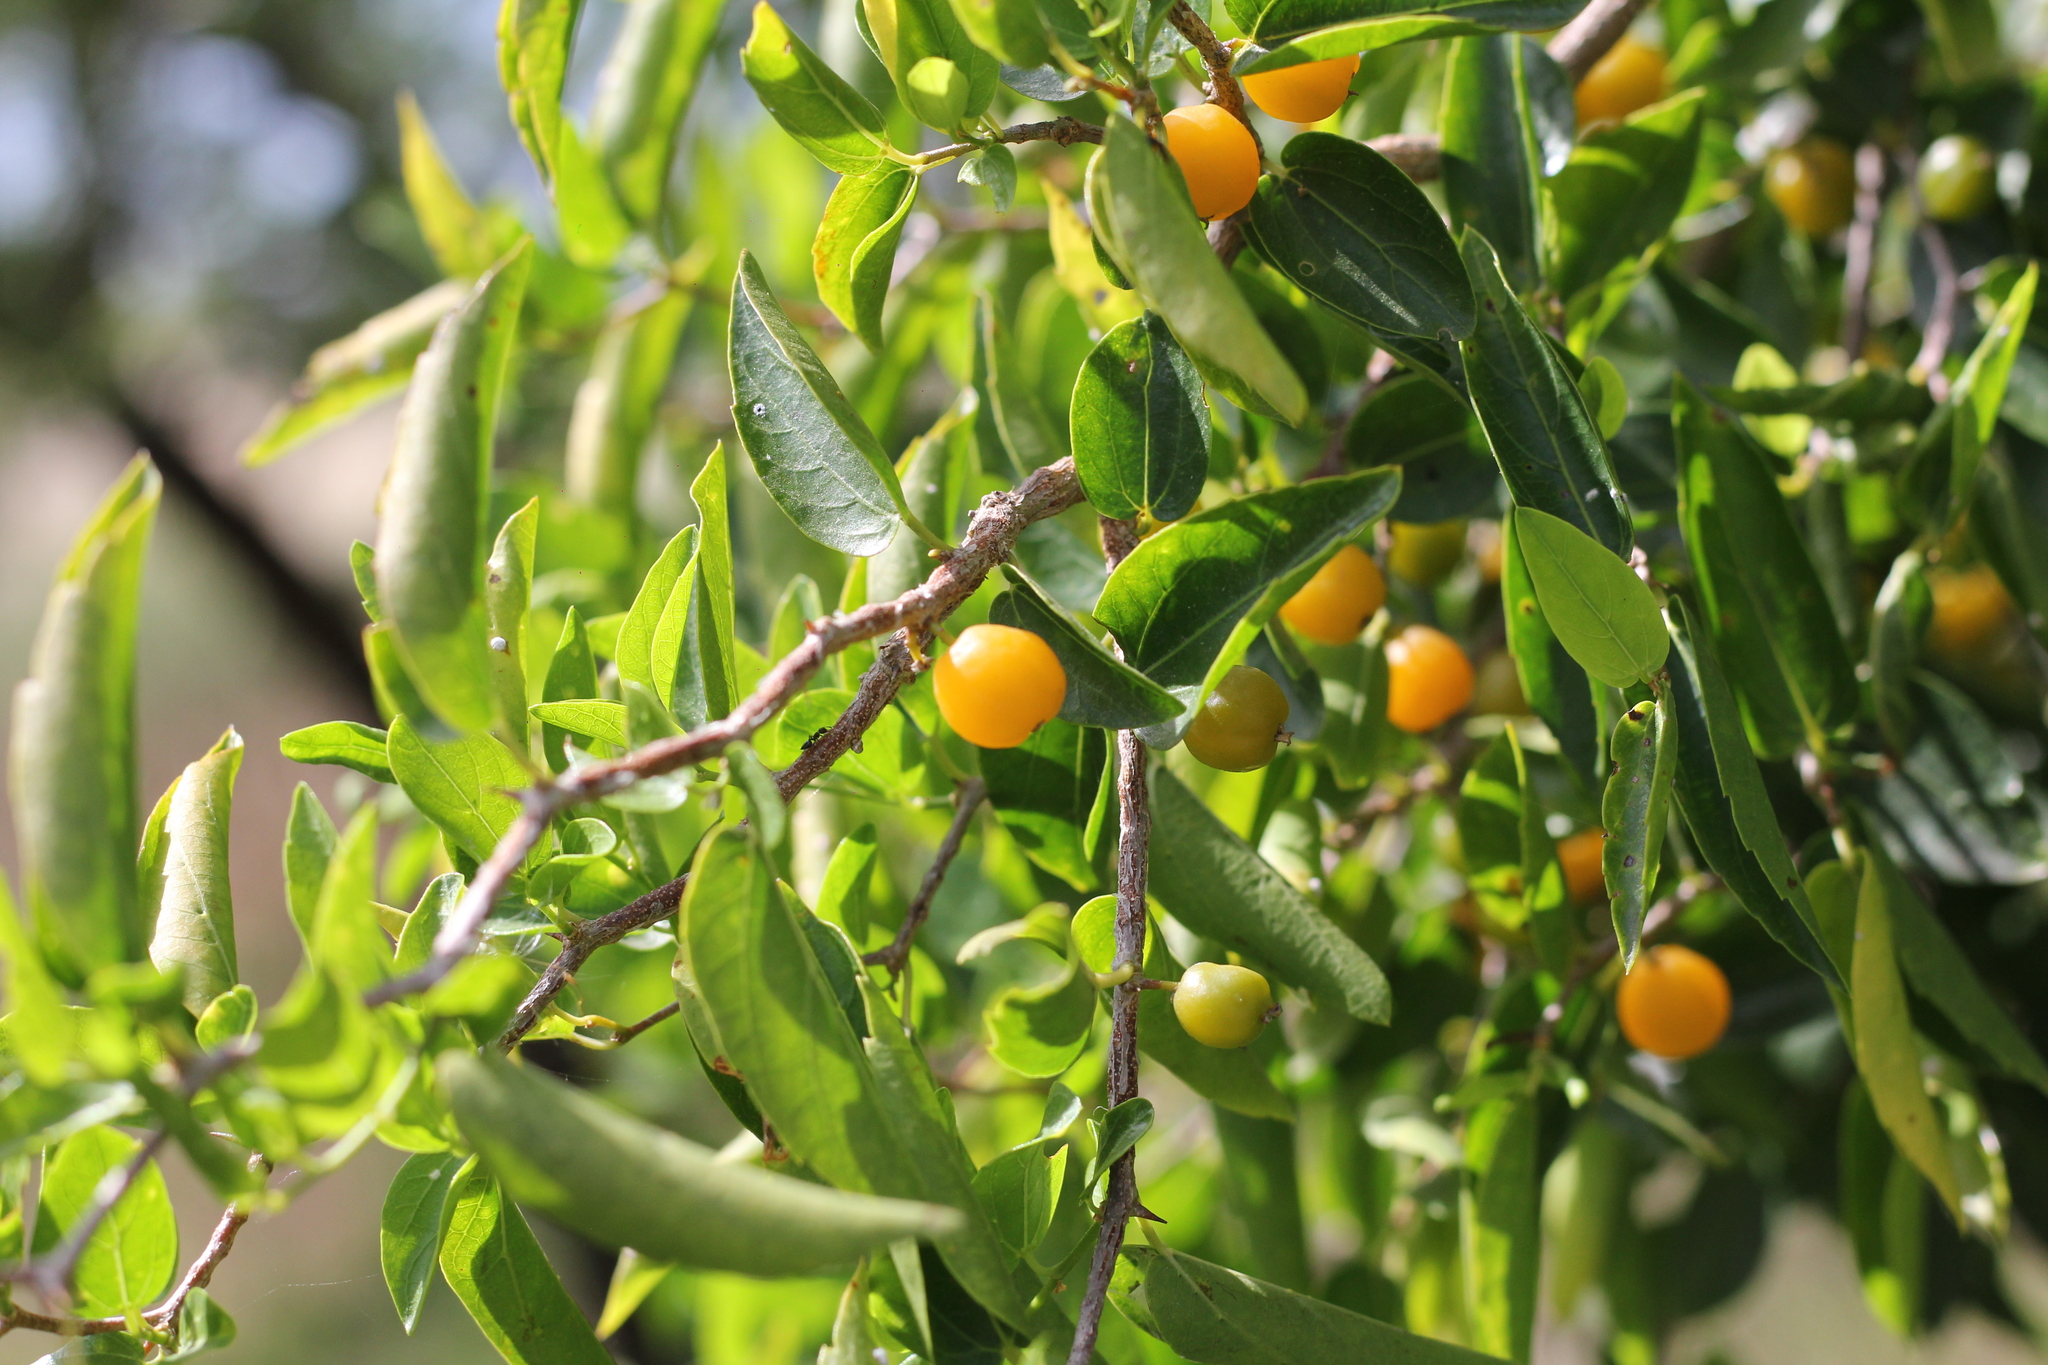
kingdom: Plantae
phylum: Tracheophyta
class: Magnoliopsida
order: Rosales
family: Cannabaceae
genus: Celtis
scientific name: Celtis tala
